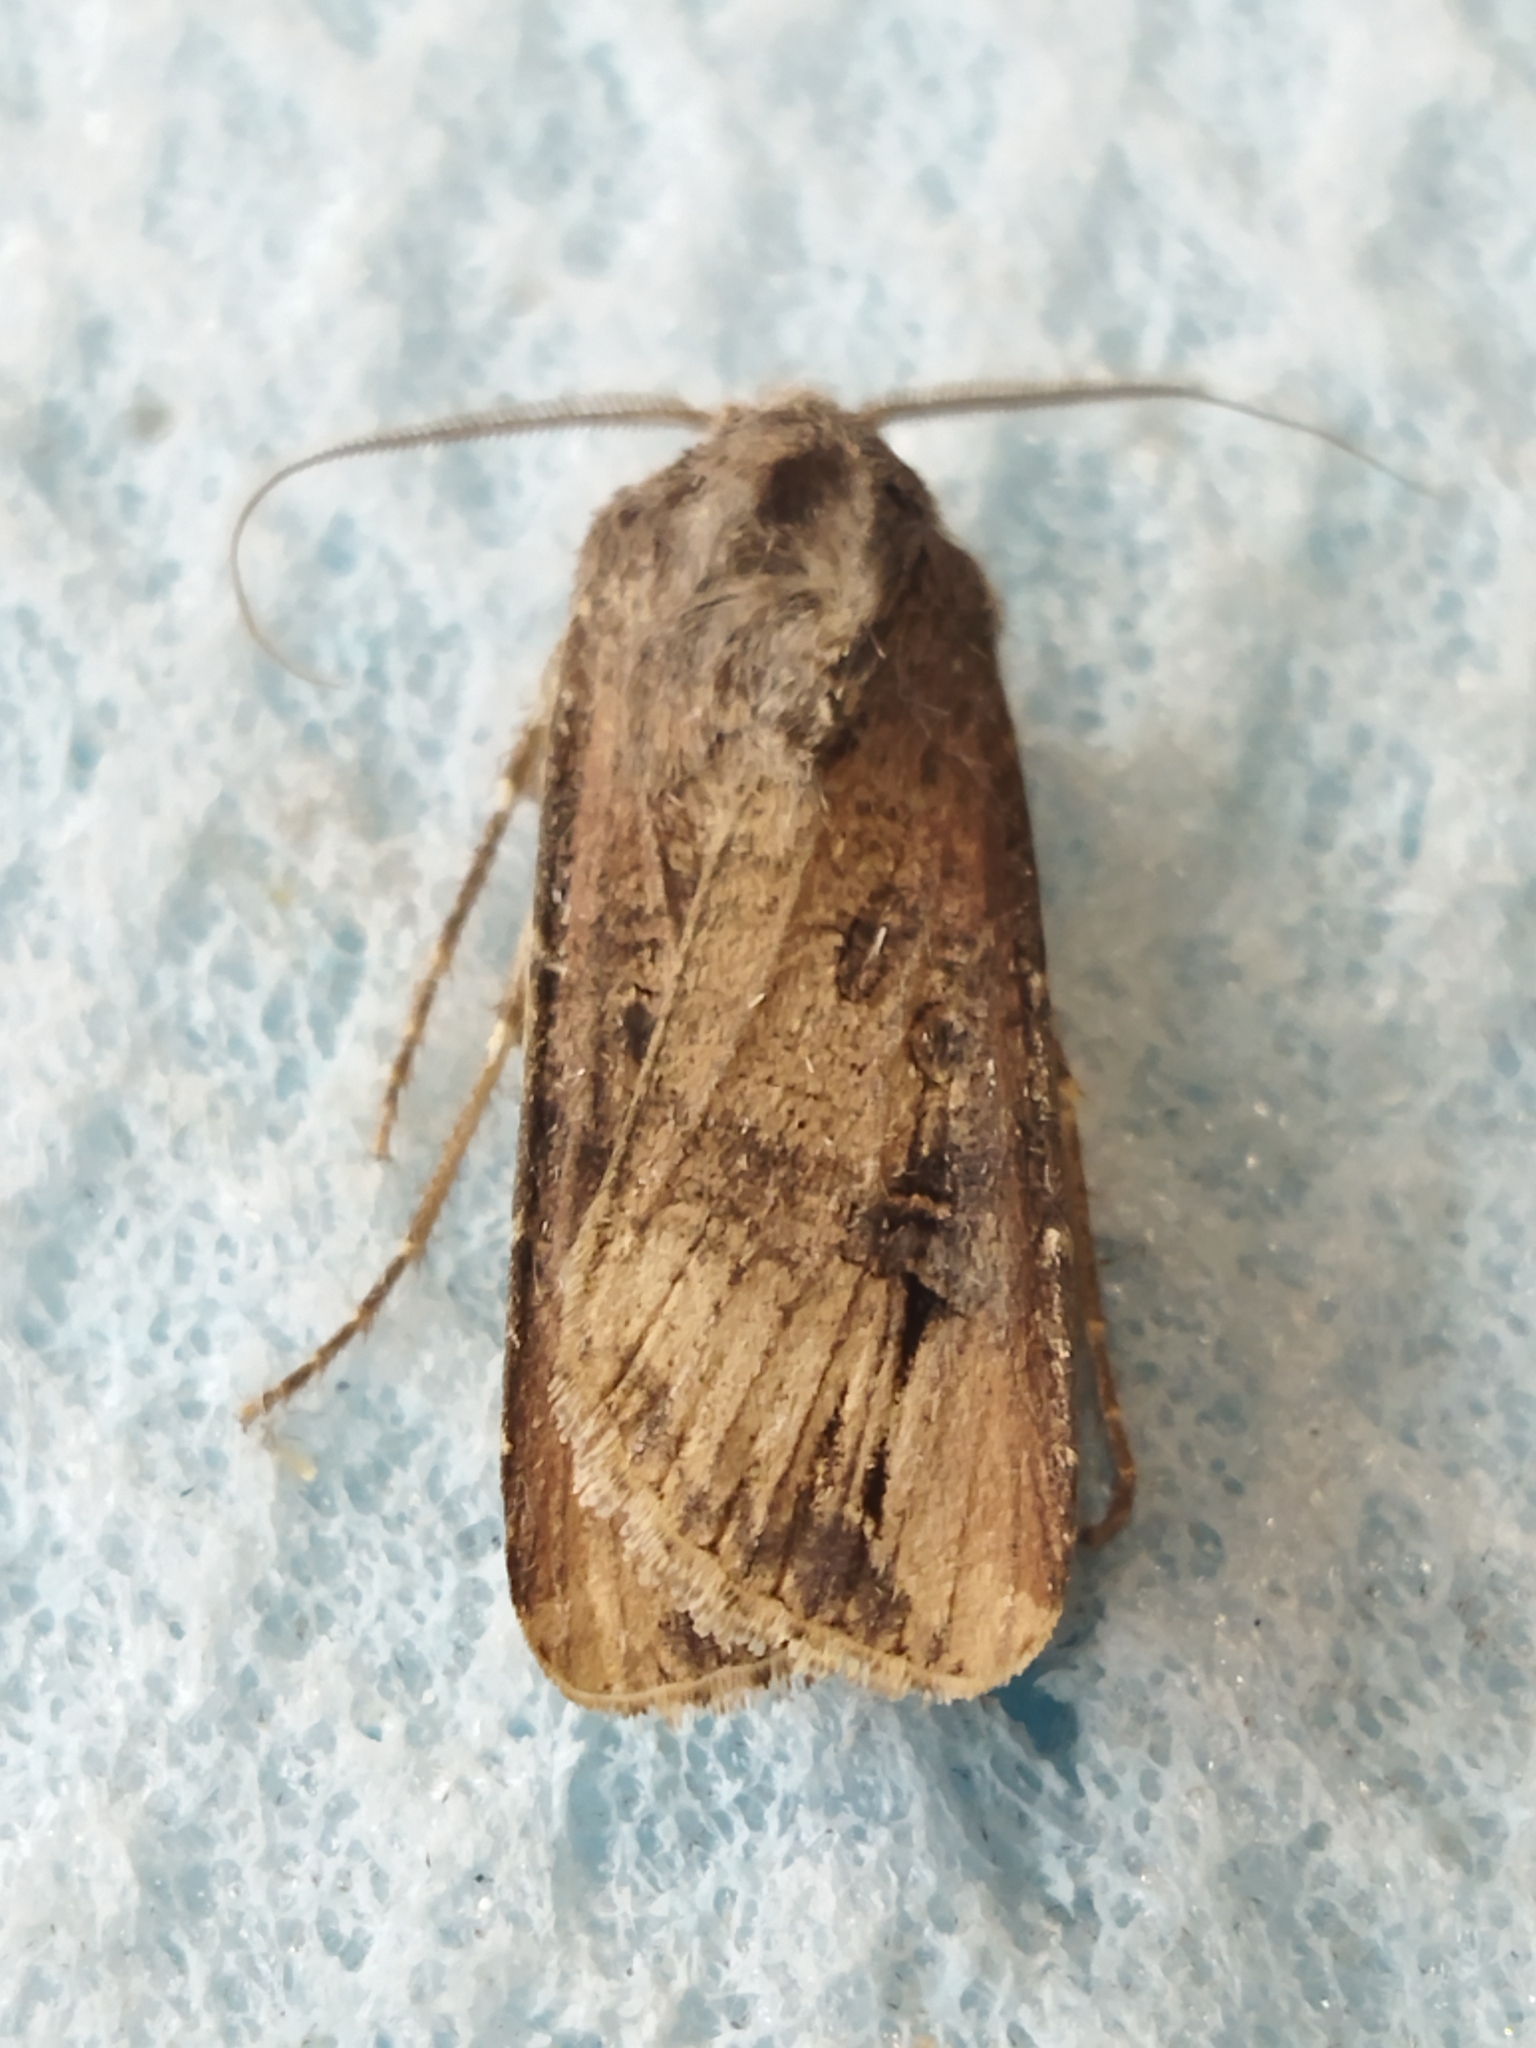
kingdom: Animalia
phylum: Arthropoda
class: Insecta
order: Lepidoptera
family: Noctuidae
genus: Agrotis
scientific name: Agrotis ipsilon
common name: Dark sword-grass
